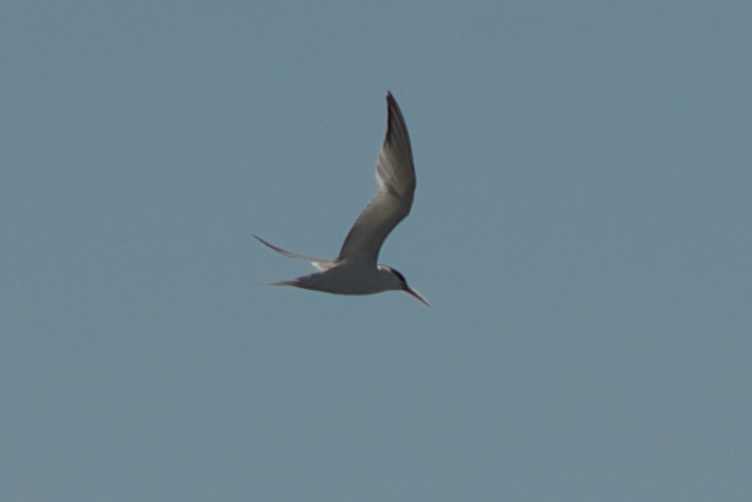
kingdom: Animalia
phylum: Chordata
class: Aves
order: Charadriiformes
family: Laridae
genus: Thalasseus
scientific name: Thalasseus elegans
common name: Elegant tern
